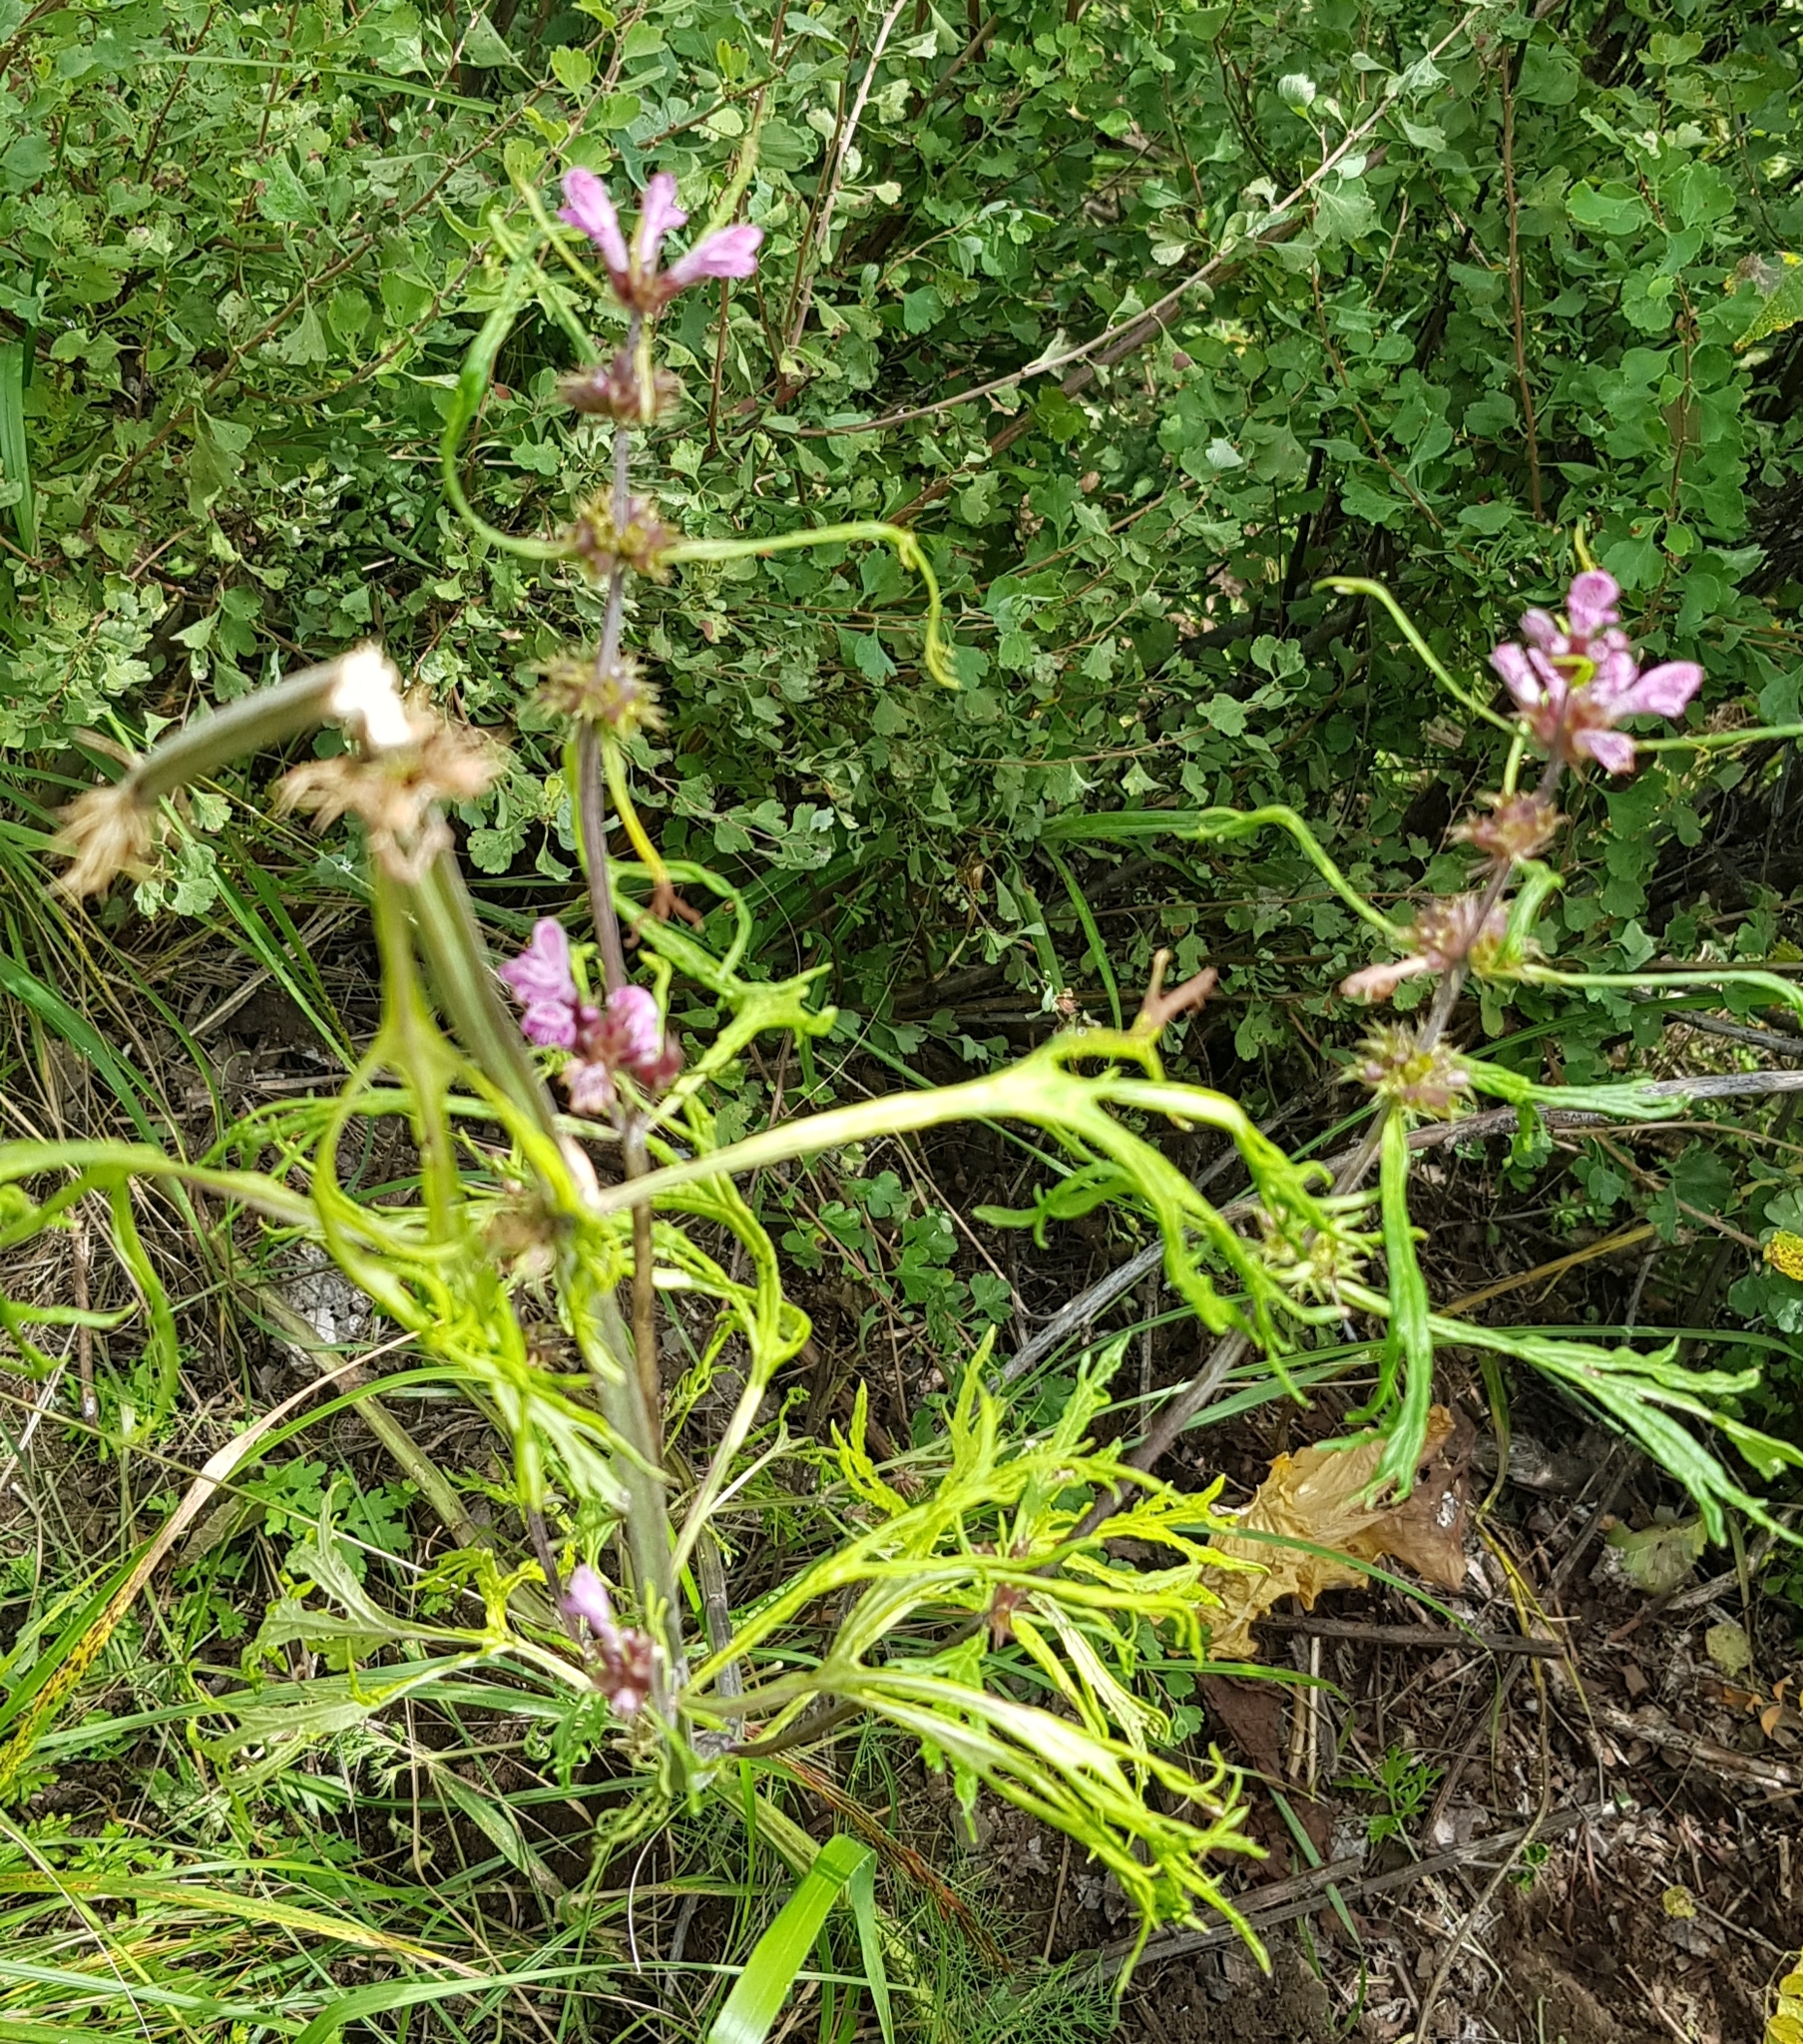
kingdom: Plantae
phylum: Tracheophyta
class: Magnoliopsida
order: Lamiales
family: Lamiaceae
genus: Leonurus
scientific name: Leonurus sibiricus
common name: Honeyweed
